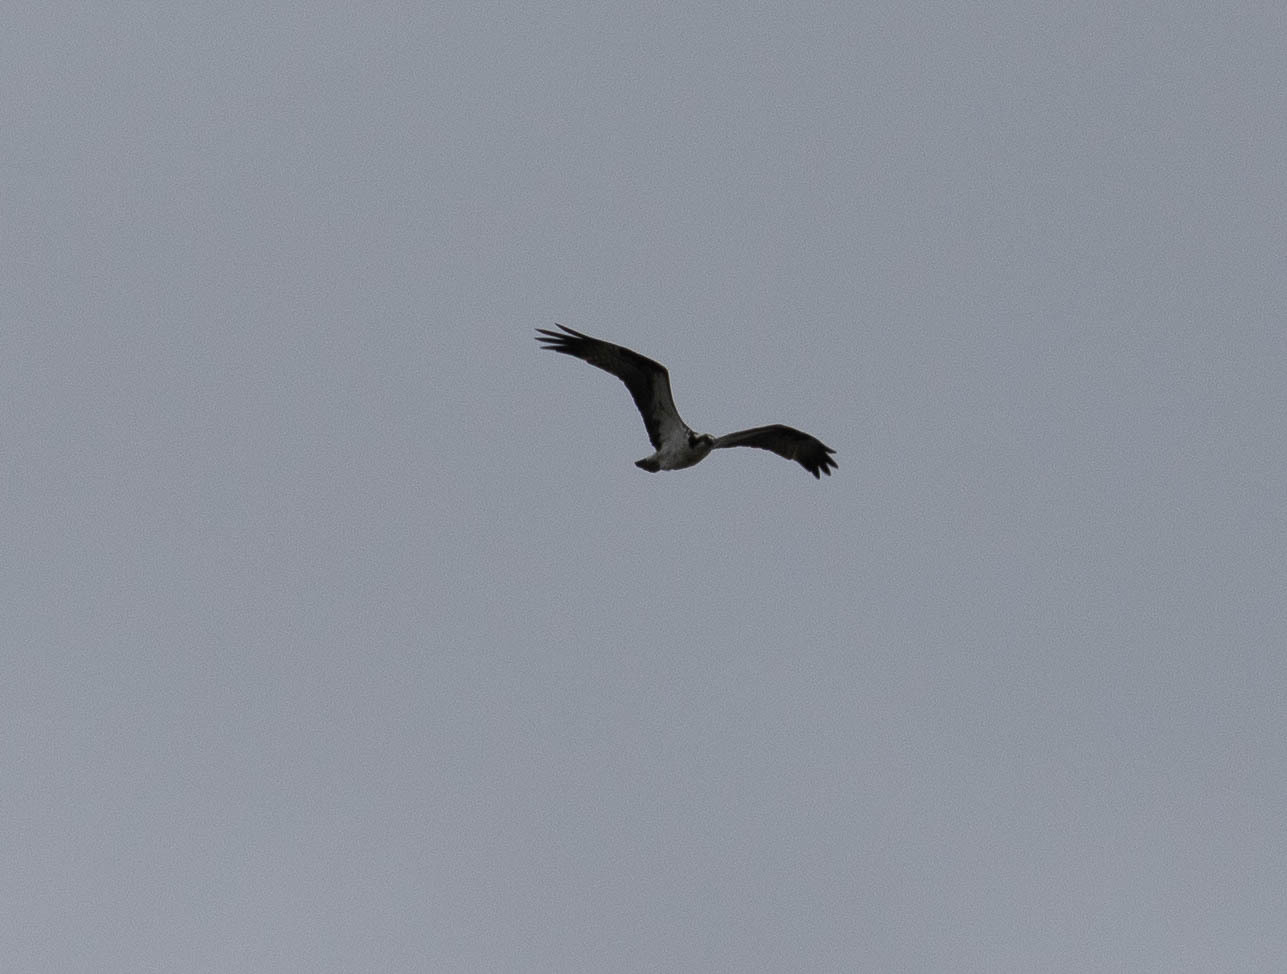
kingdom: Animalia
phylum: Chordata
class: Aves
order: Accipitriformes
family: Pandionidae
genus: Pandion
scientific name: Pandion haliaetus
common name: Osprey
